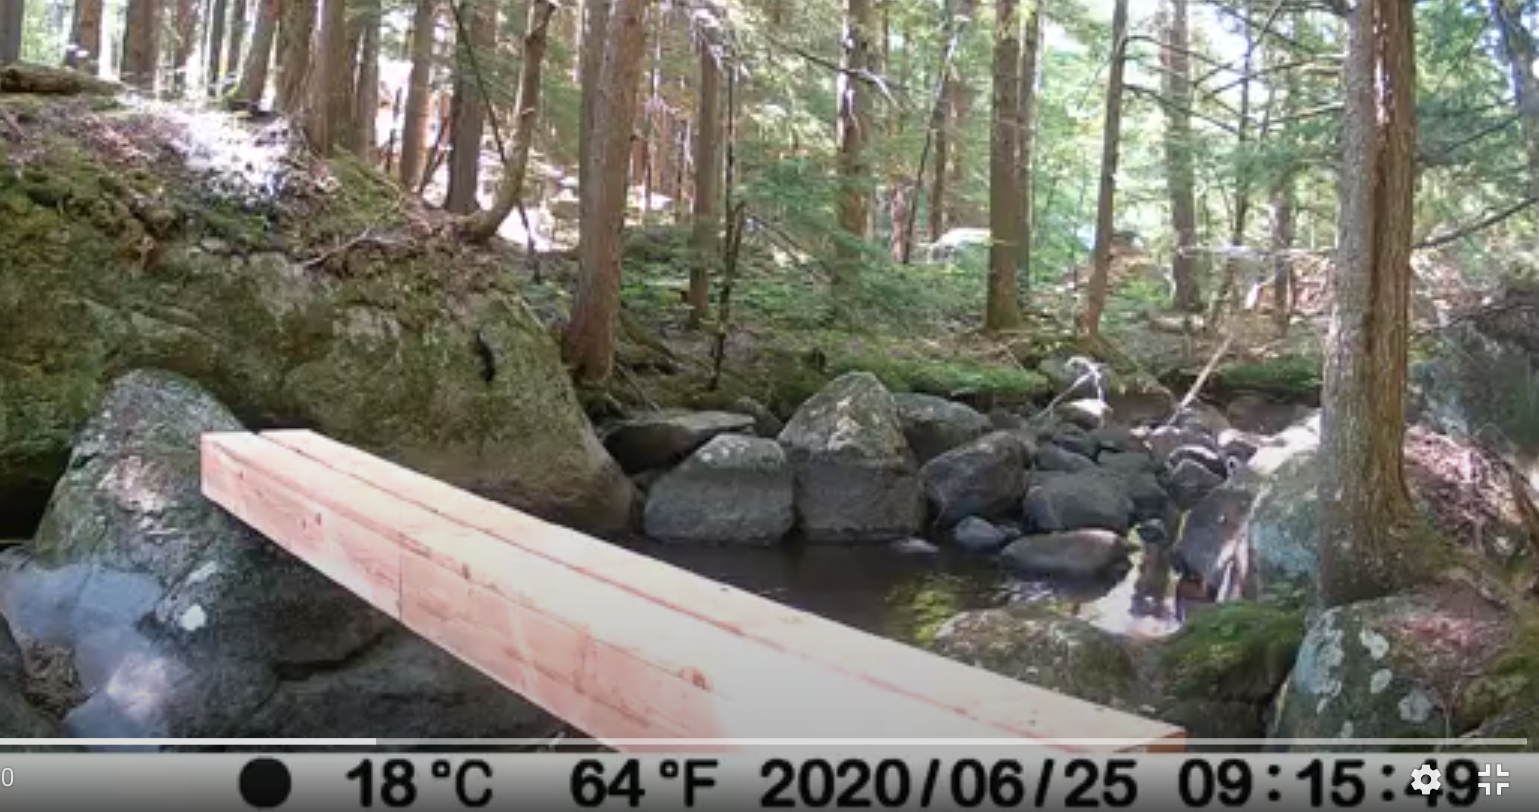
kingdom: Animalia
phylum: Chordata
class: Mammalia
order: Carnivora
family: Mustelidae
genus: Mustela
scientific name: Mustela
